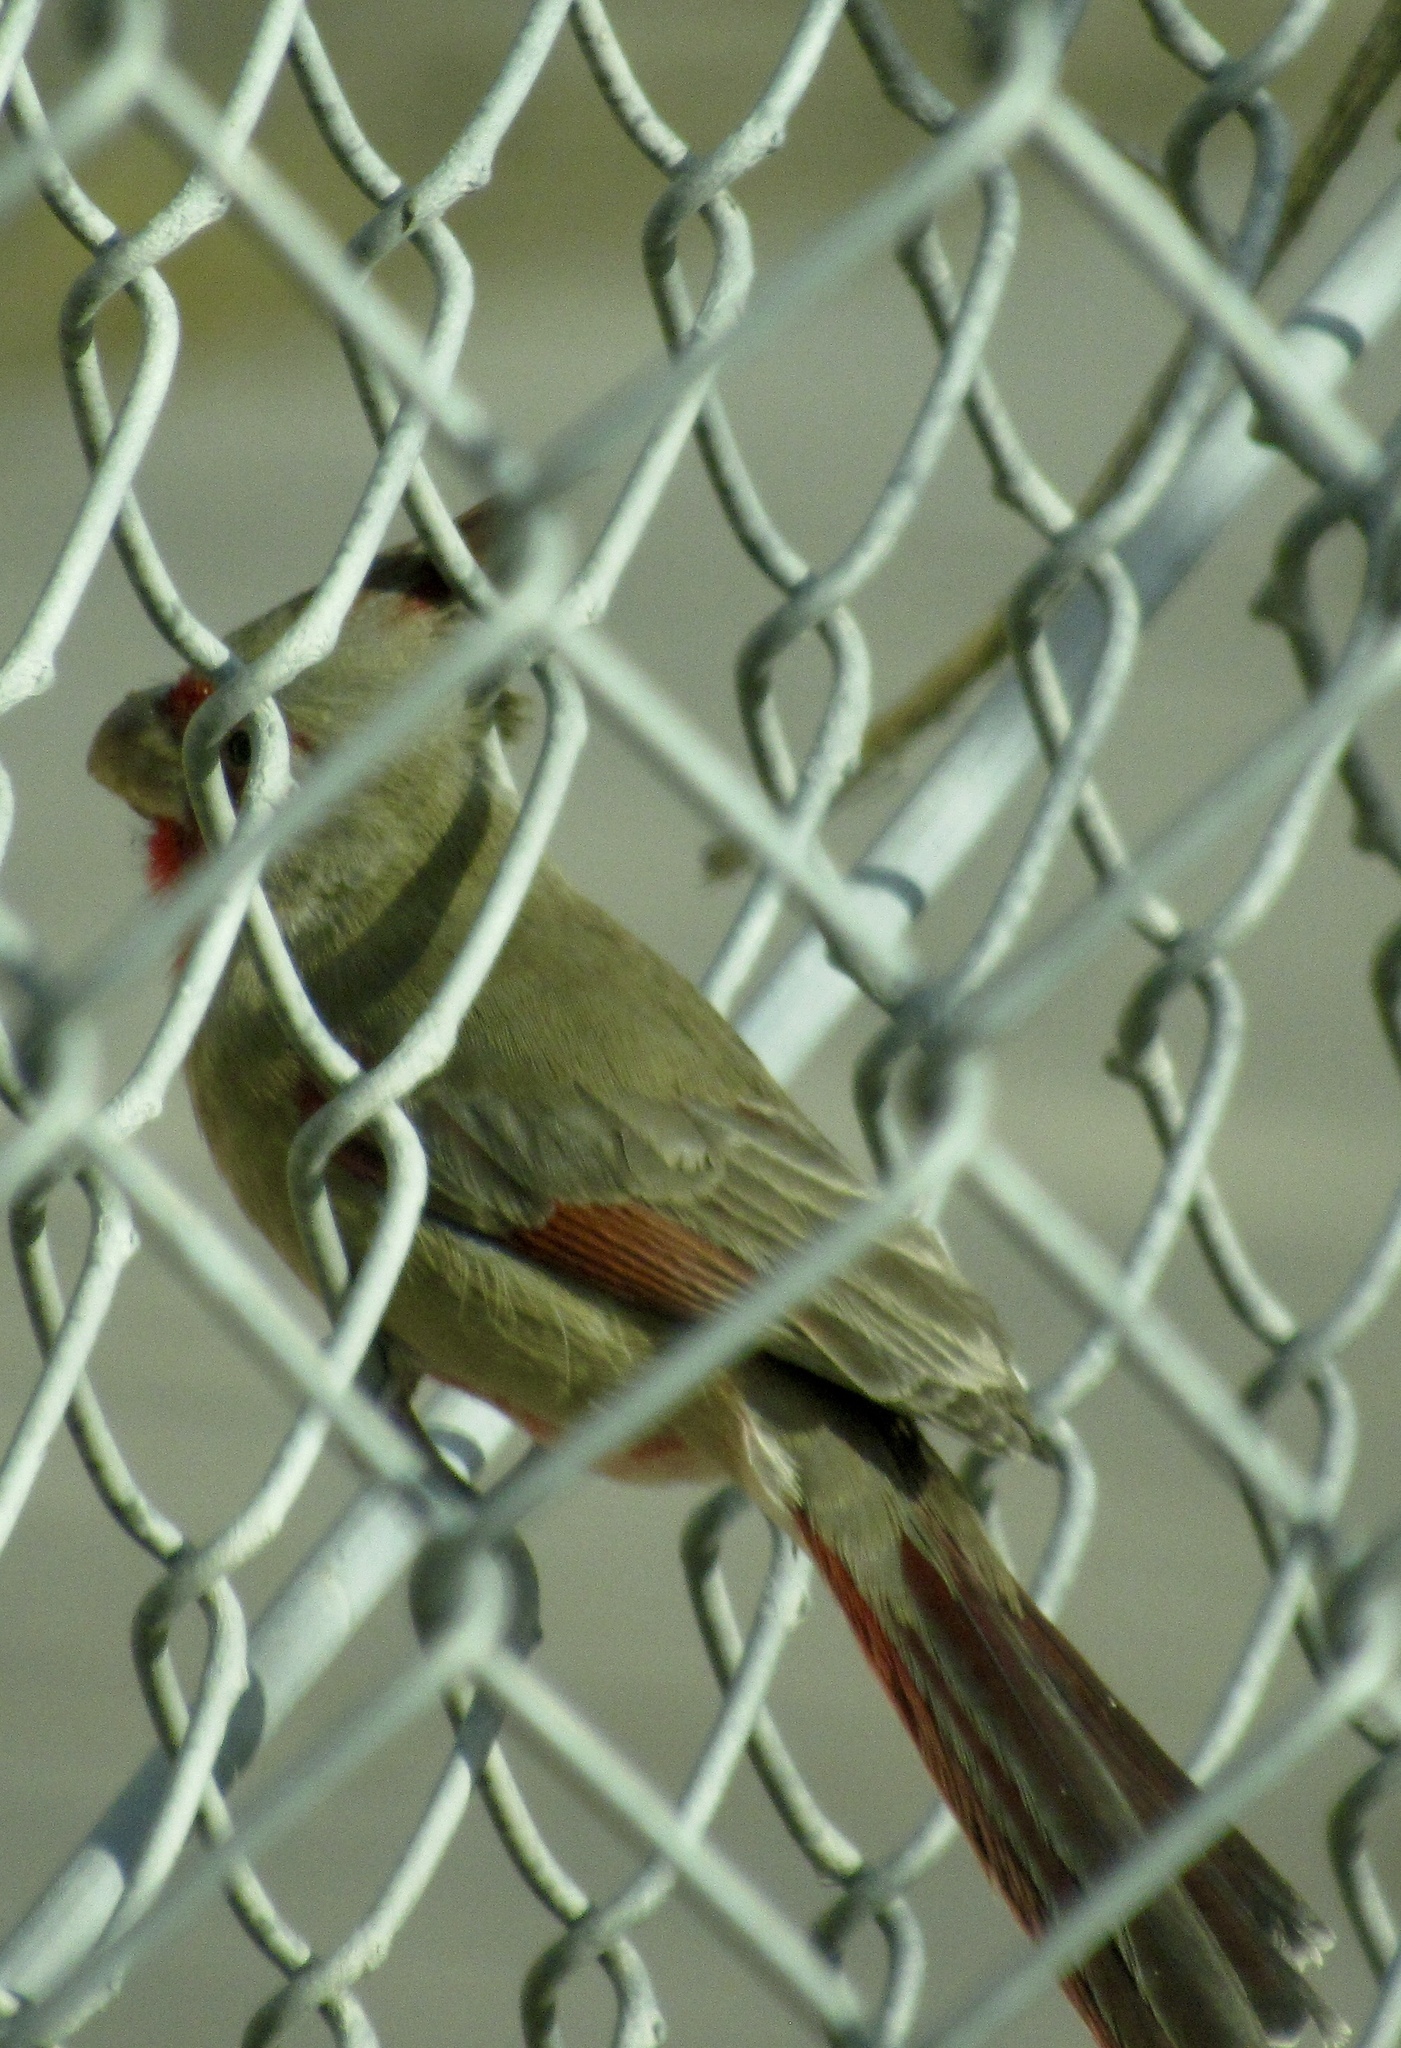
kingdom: Animalia
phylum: Chordata
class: Aves
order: Passeriformes
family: Cardinalidae
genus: Cardinalis
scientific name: Cardinalis sinuatus
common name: Pyrrhuloxia
